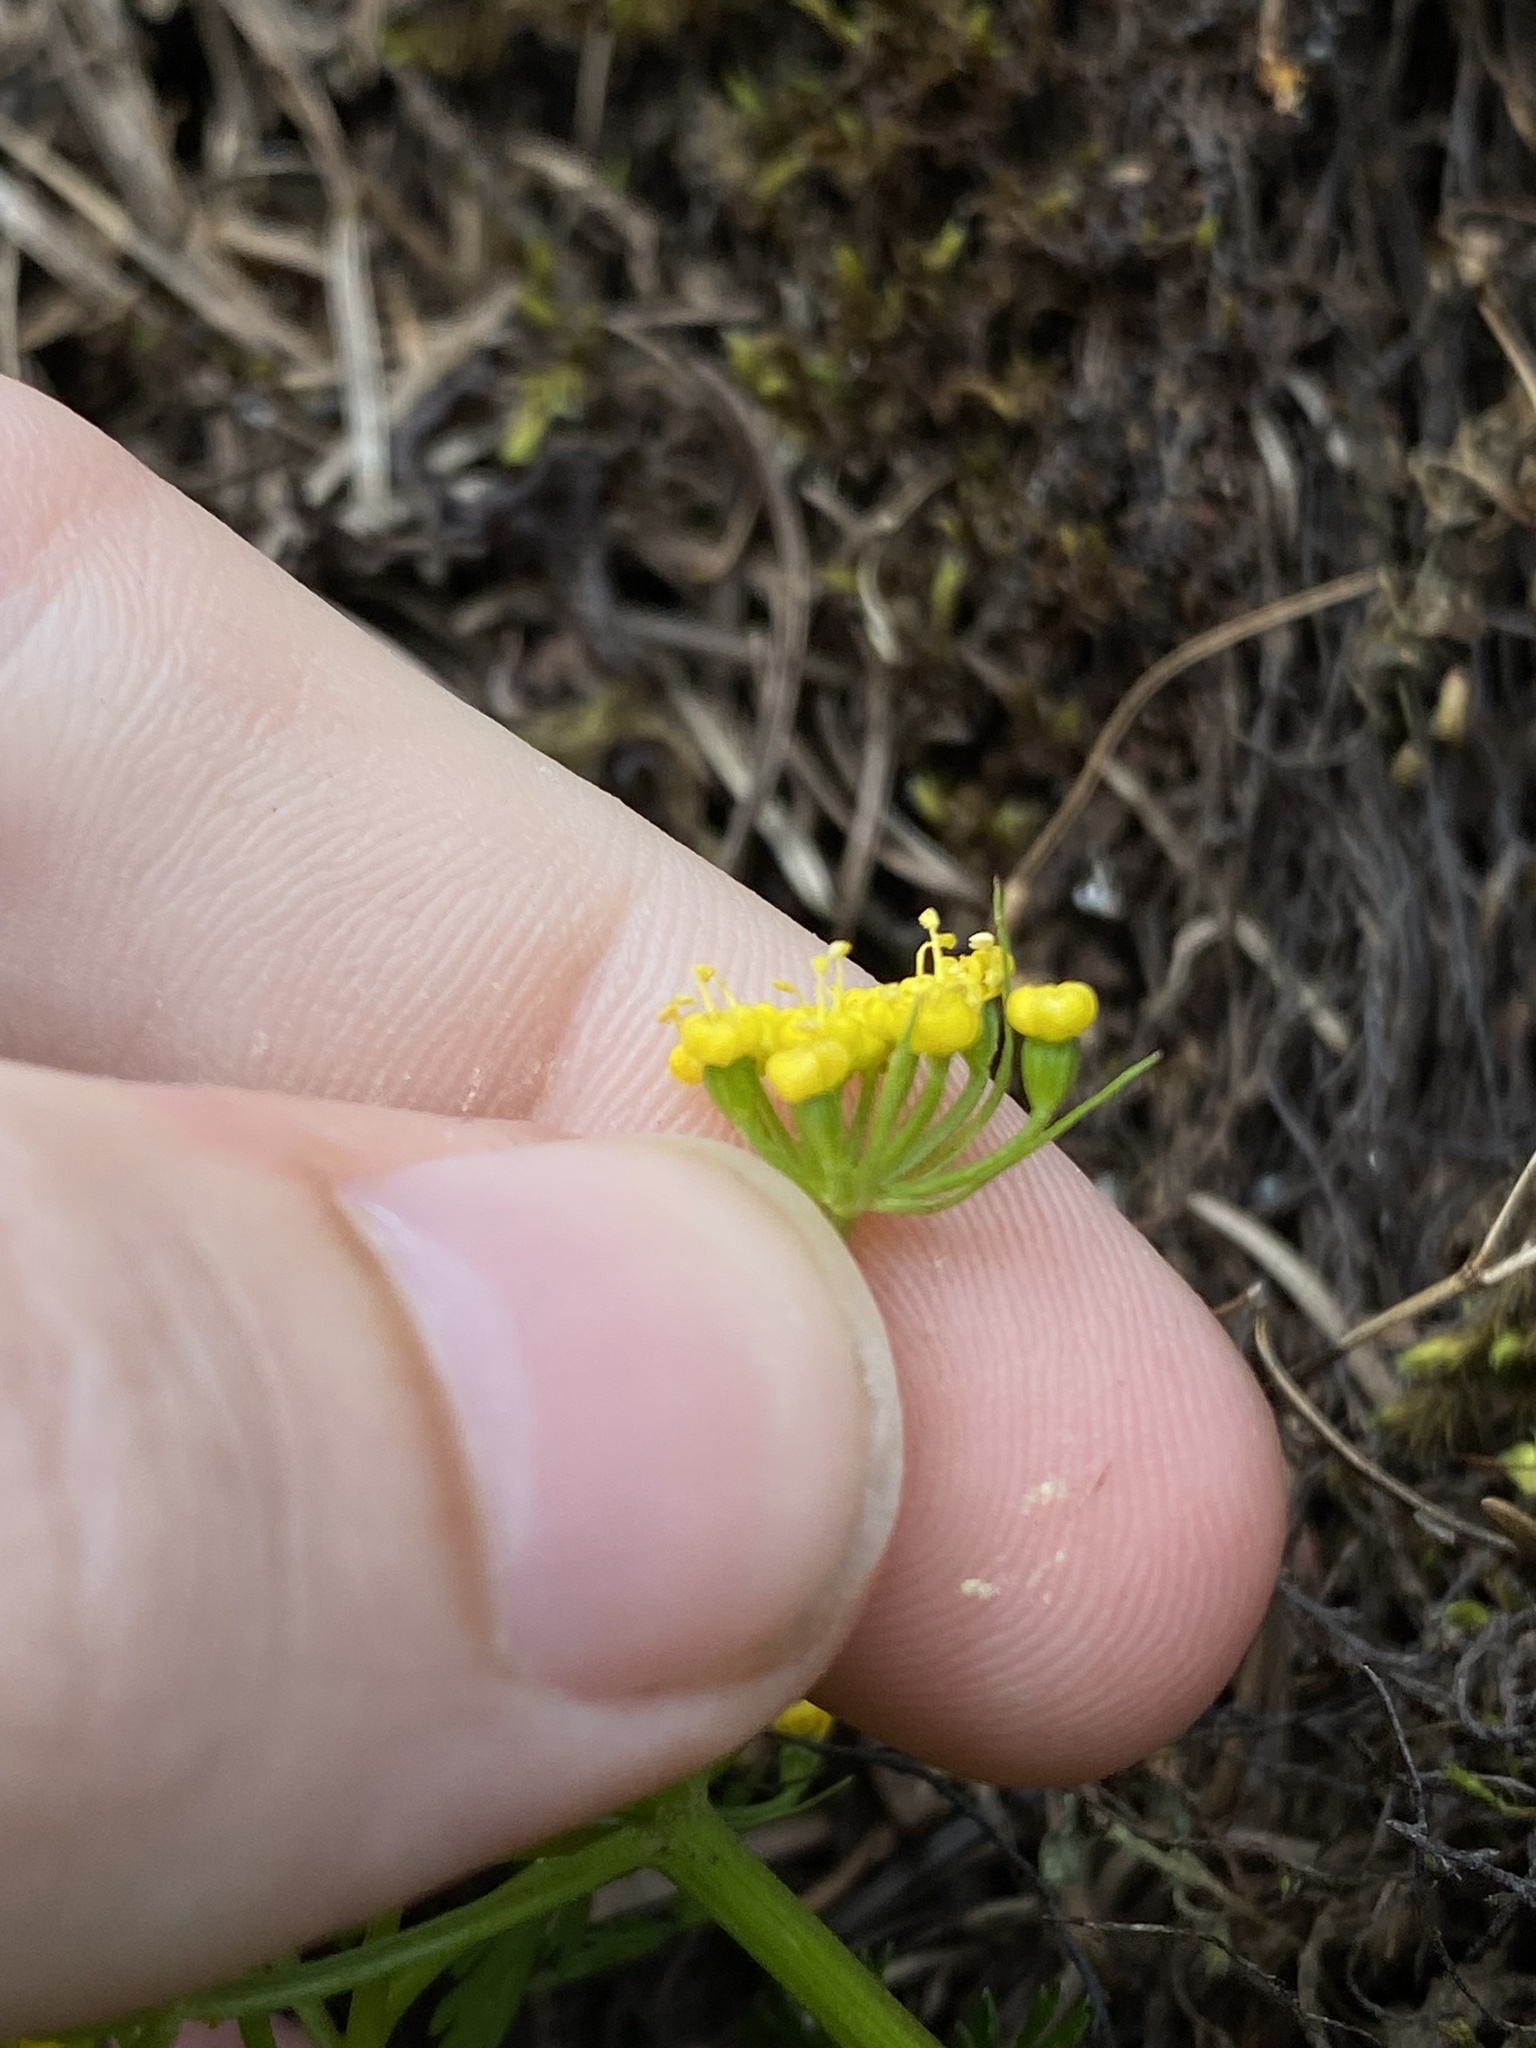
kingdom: Plantae
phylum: Tracheophyta
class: Magnoliopsida
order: Apiales
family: Apiaceae
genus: Lomatium
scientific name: Lomatium hallii
